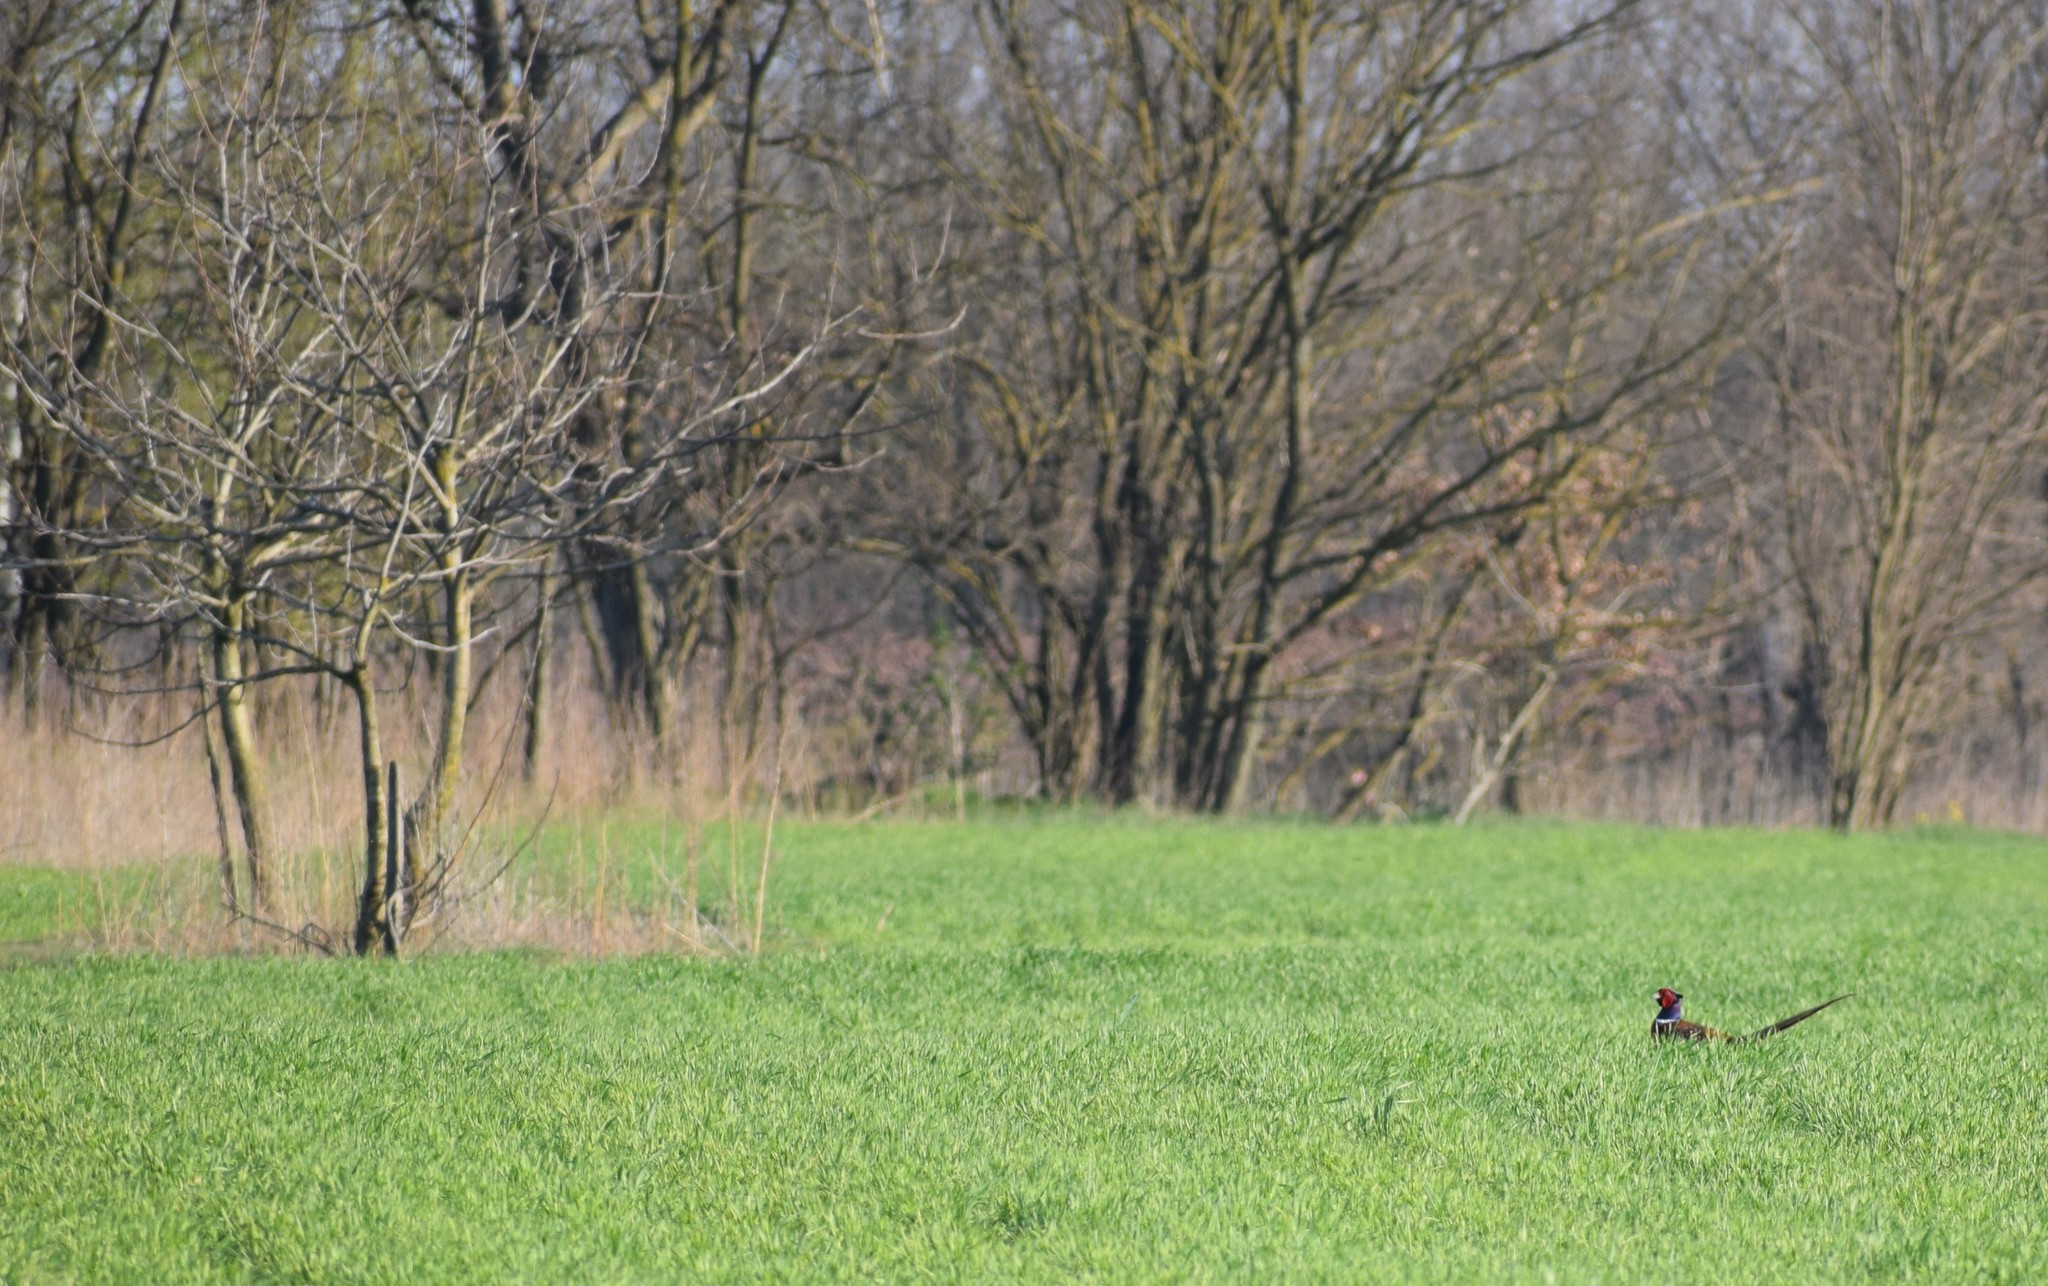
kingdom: Animalia
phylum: Chordata
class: Aves
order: Galliformes
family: Phasianidae
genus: Phasianus
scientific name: Phasianus colchicus
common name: Common pheasant
